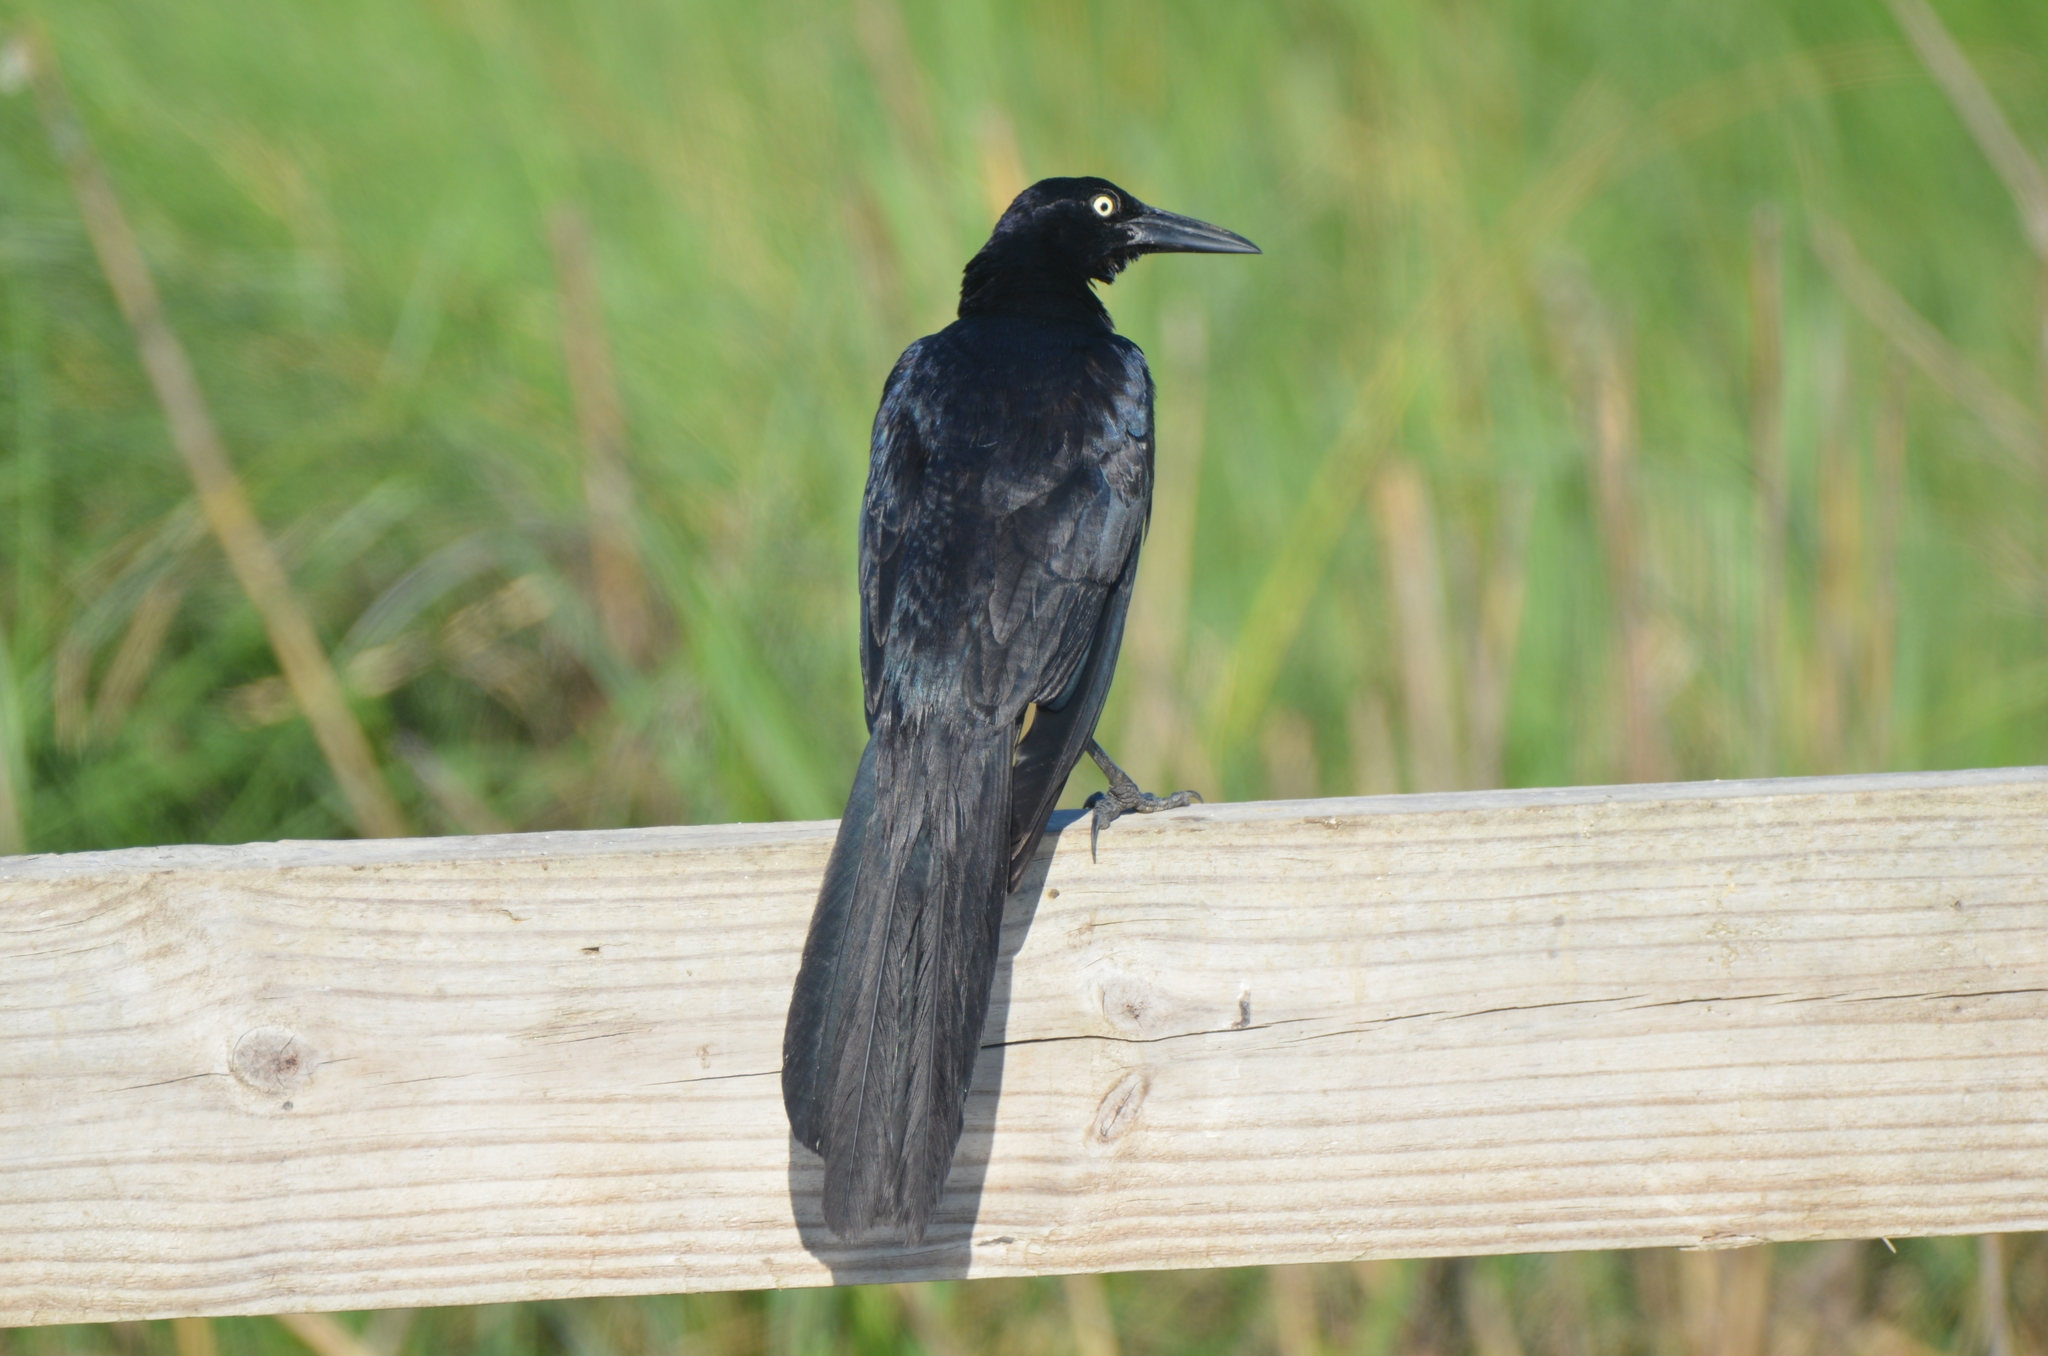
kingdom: Animalia
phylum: Chordata
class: Aves
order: Passeriformes
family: Icteridae
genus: Quiscalus
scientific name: Quiscalus mexicanus
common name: Great-tailed grackle
